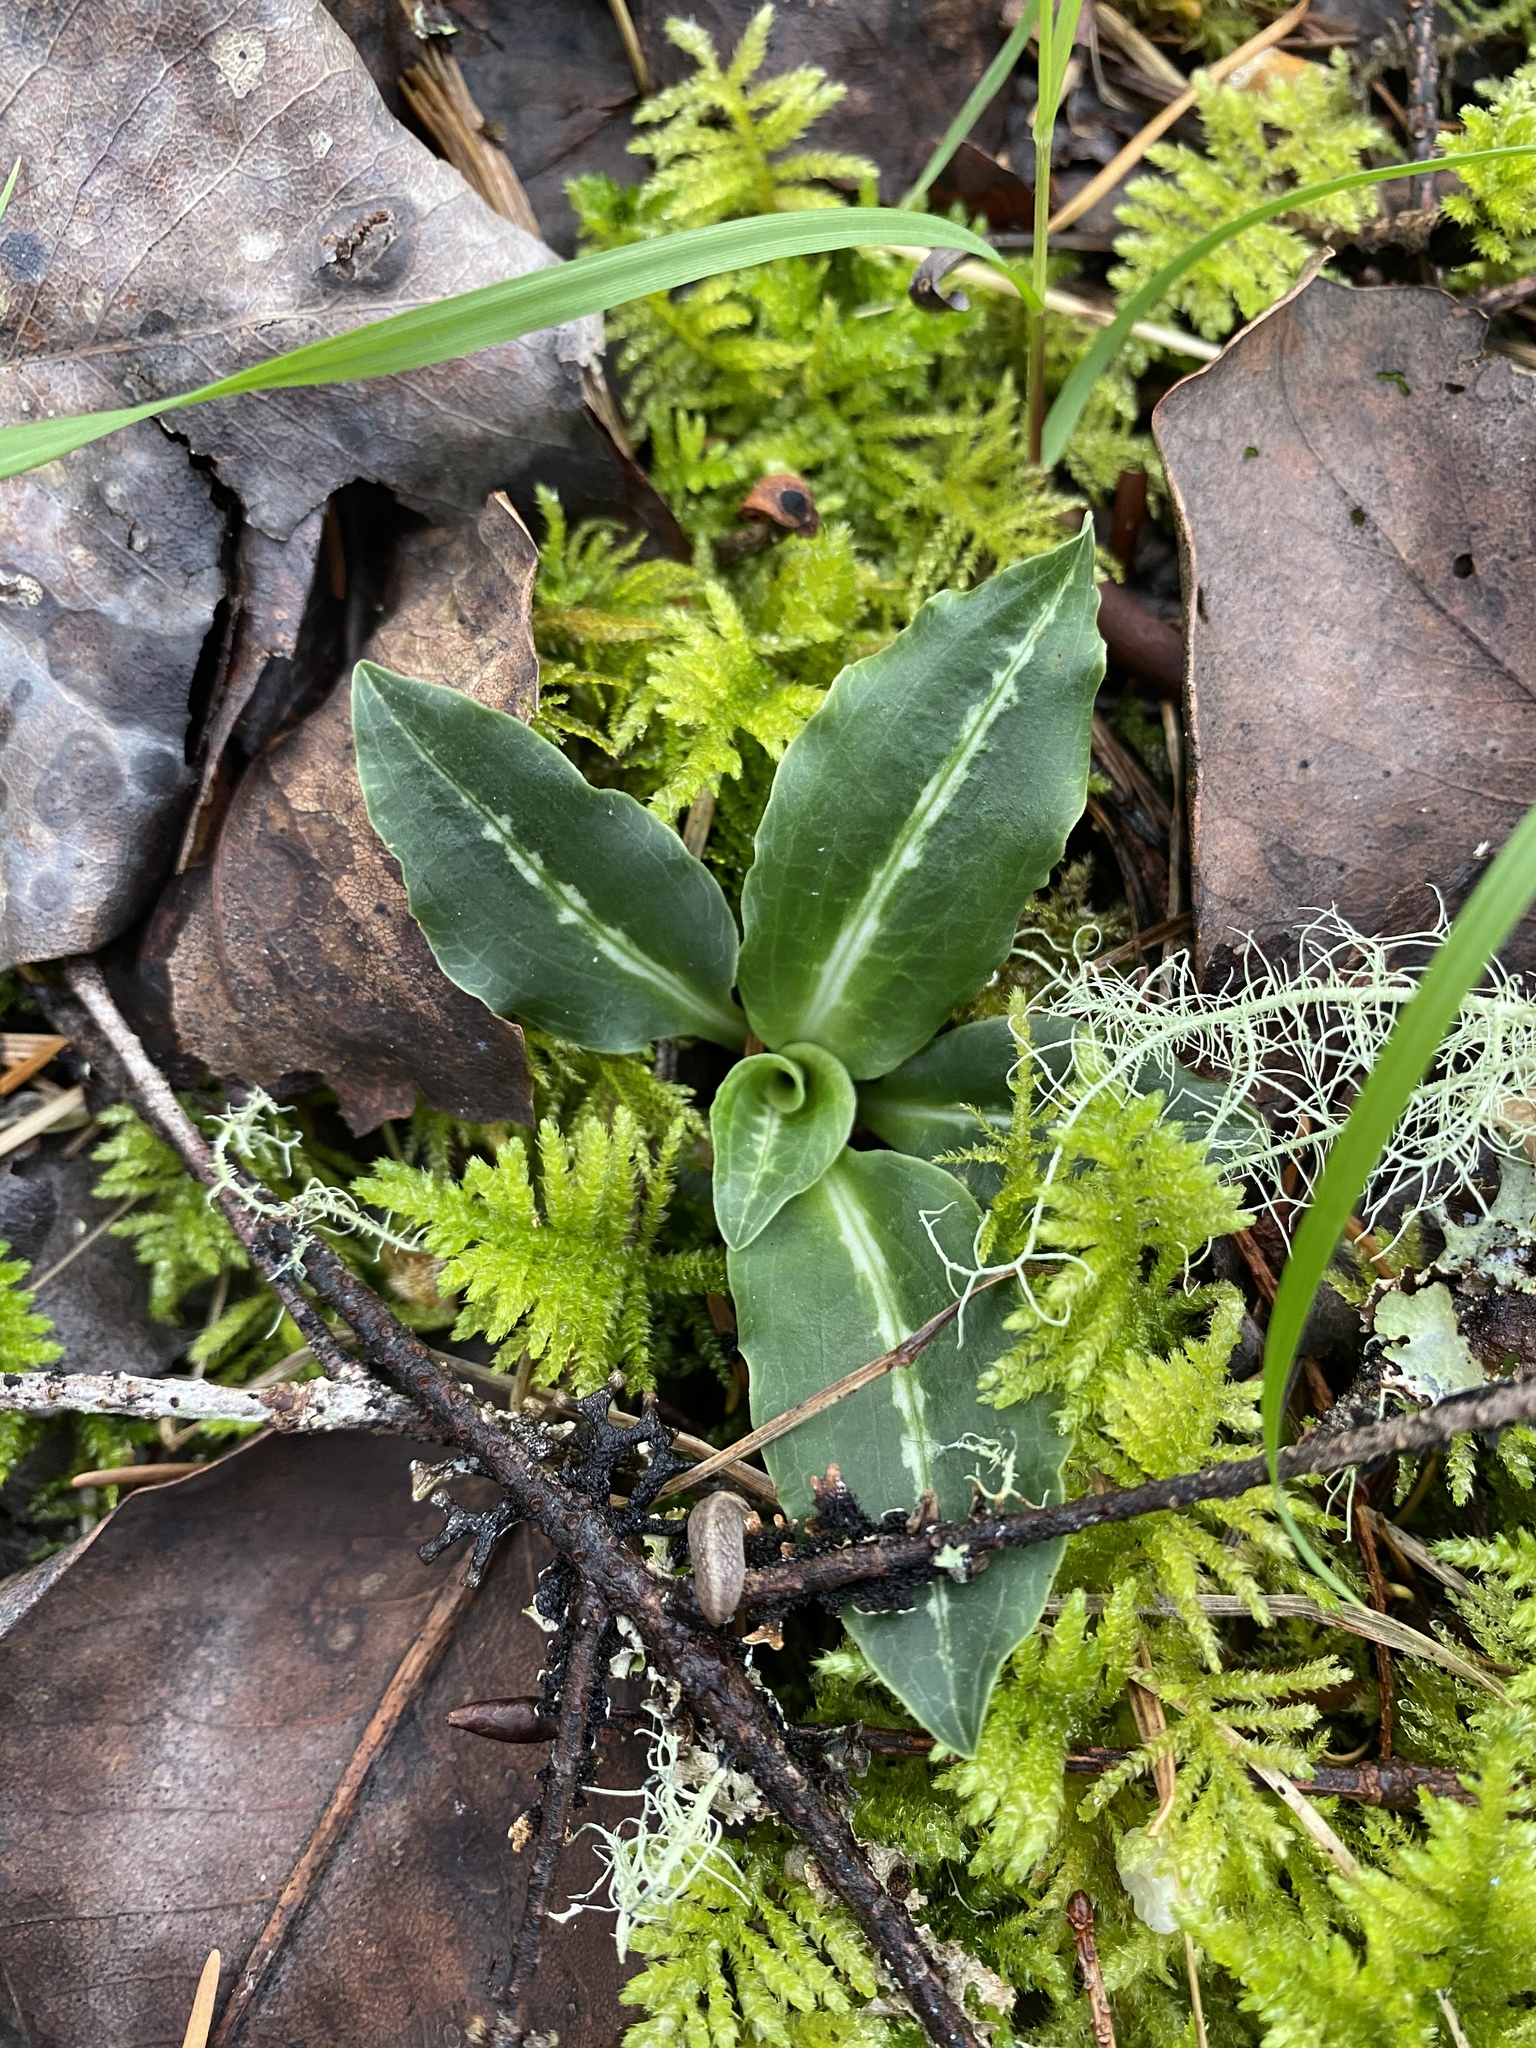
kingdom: Plantae
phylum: Tracheophyta
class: Liliopsida
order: Asparagales
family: Orchidaceae
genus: Goodyera
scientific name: Goodyera oblongifolia
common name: Giant rattlesnake-plantain
